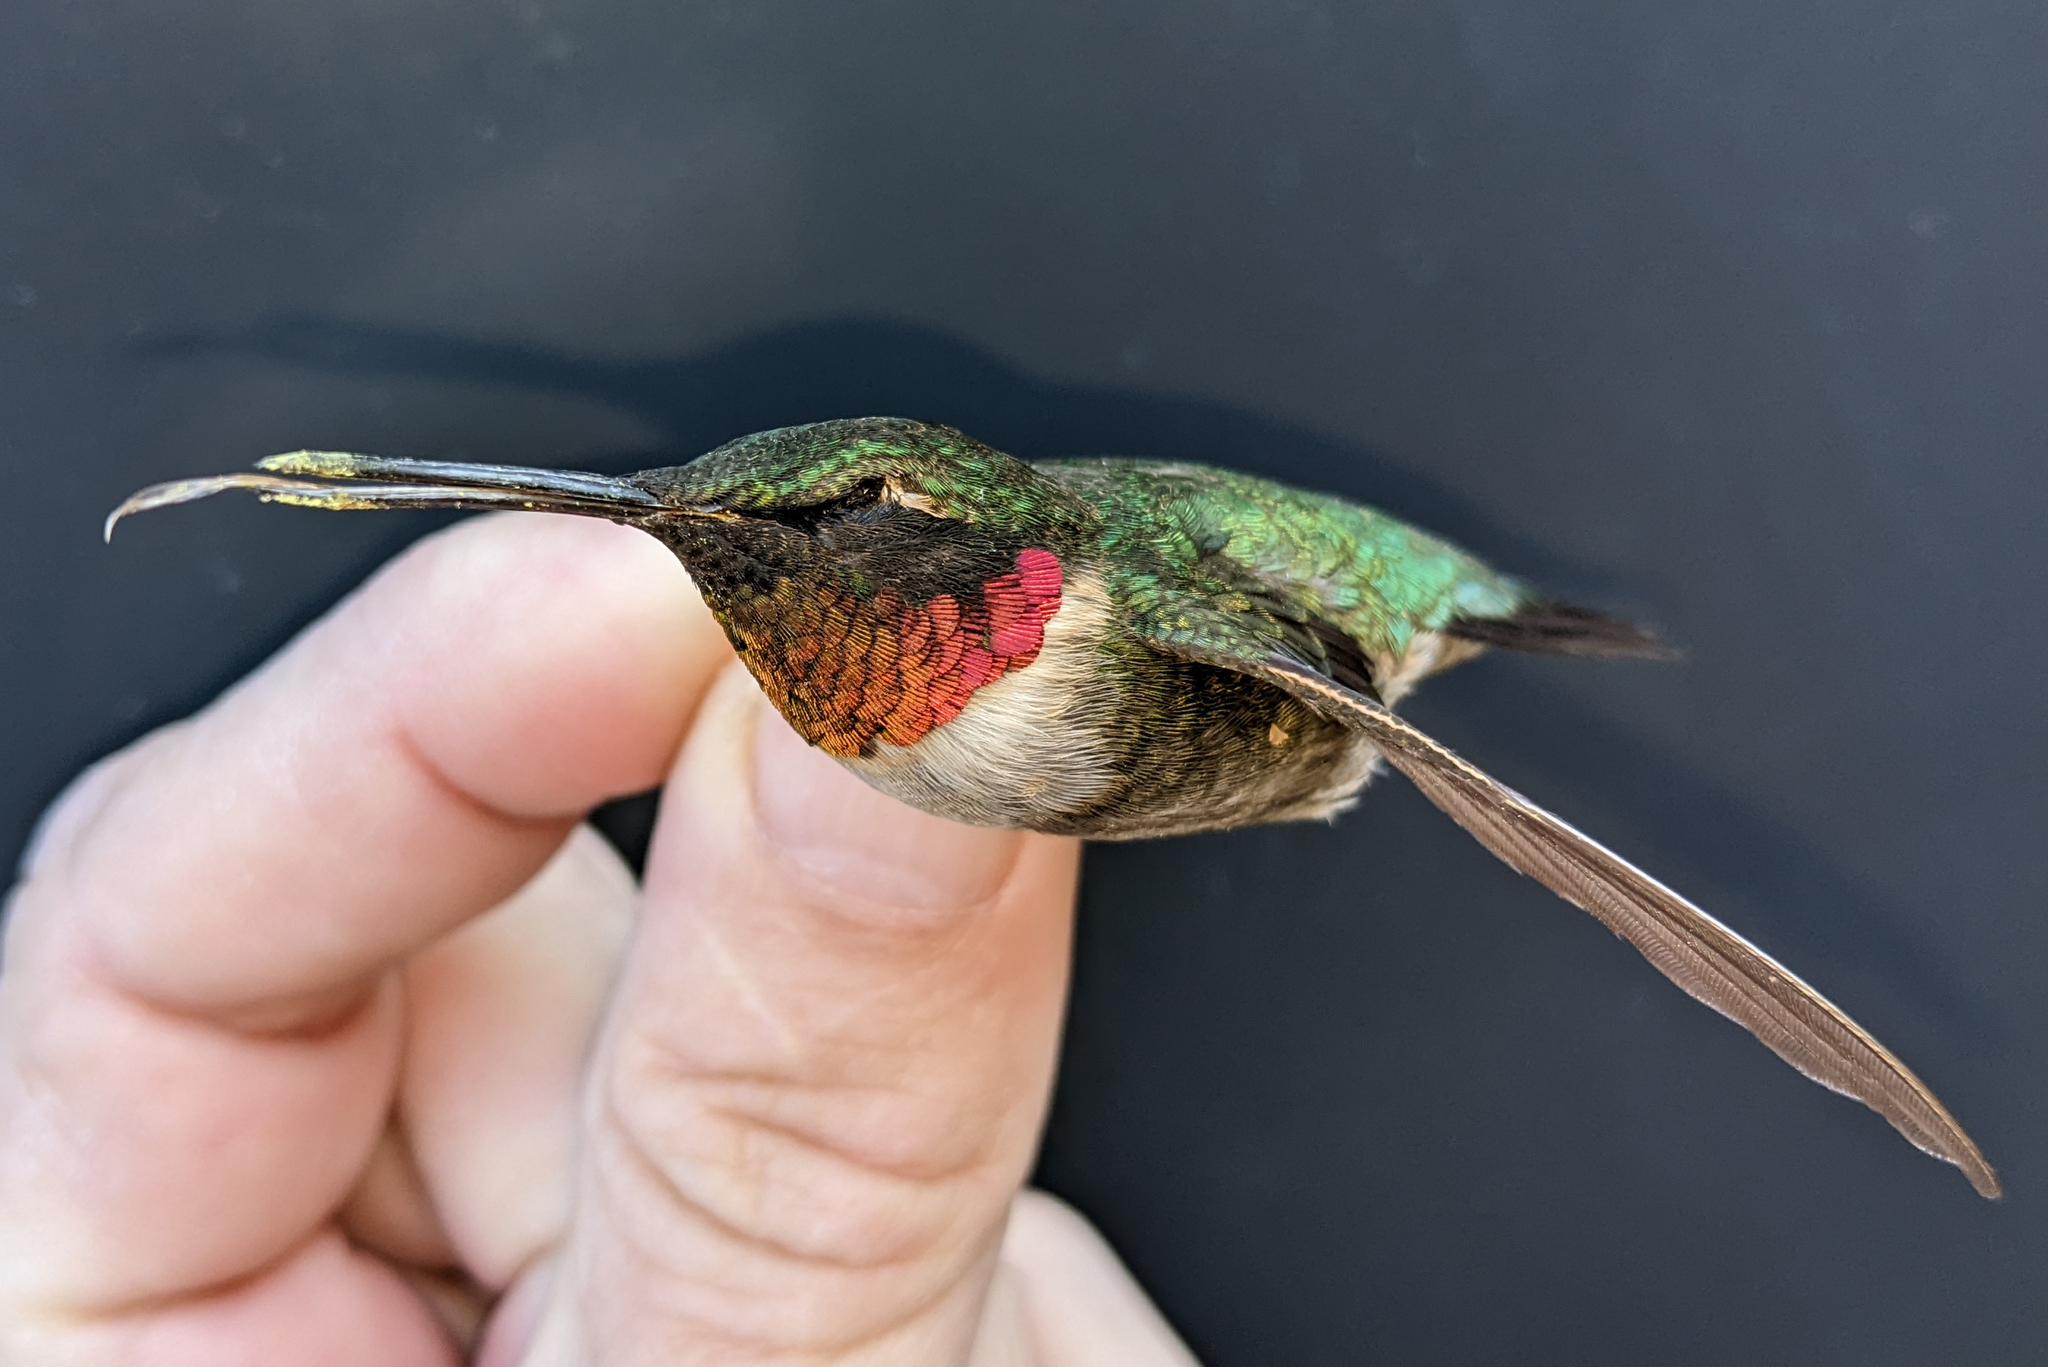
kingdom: Animalia
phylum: Chordata
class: Aves
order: Apodiformes
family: Trochilidae
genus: Archilochus
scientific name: Archilochus colubris
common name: Ruby-throated hummingbird
